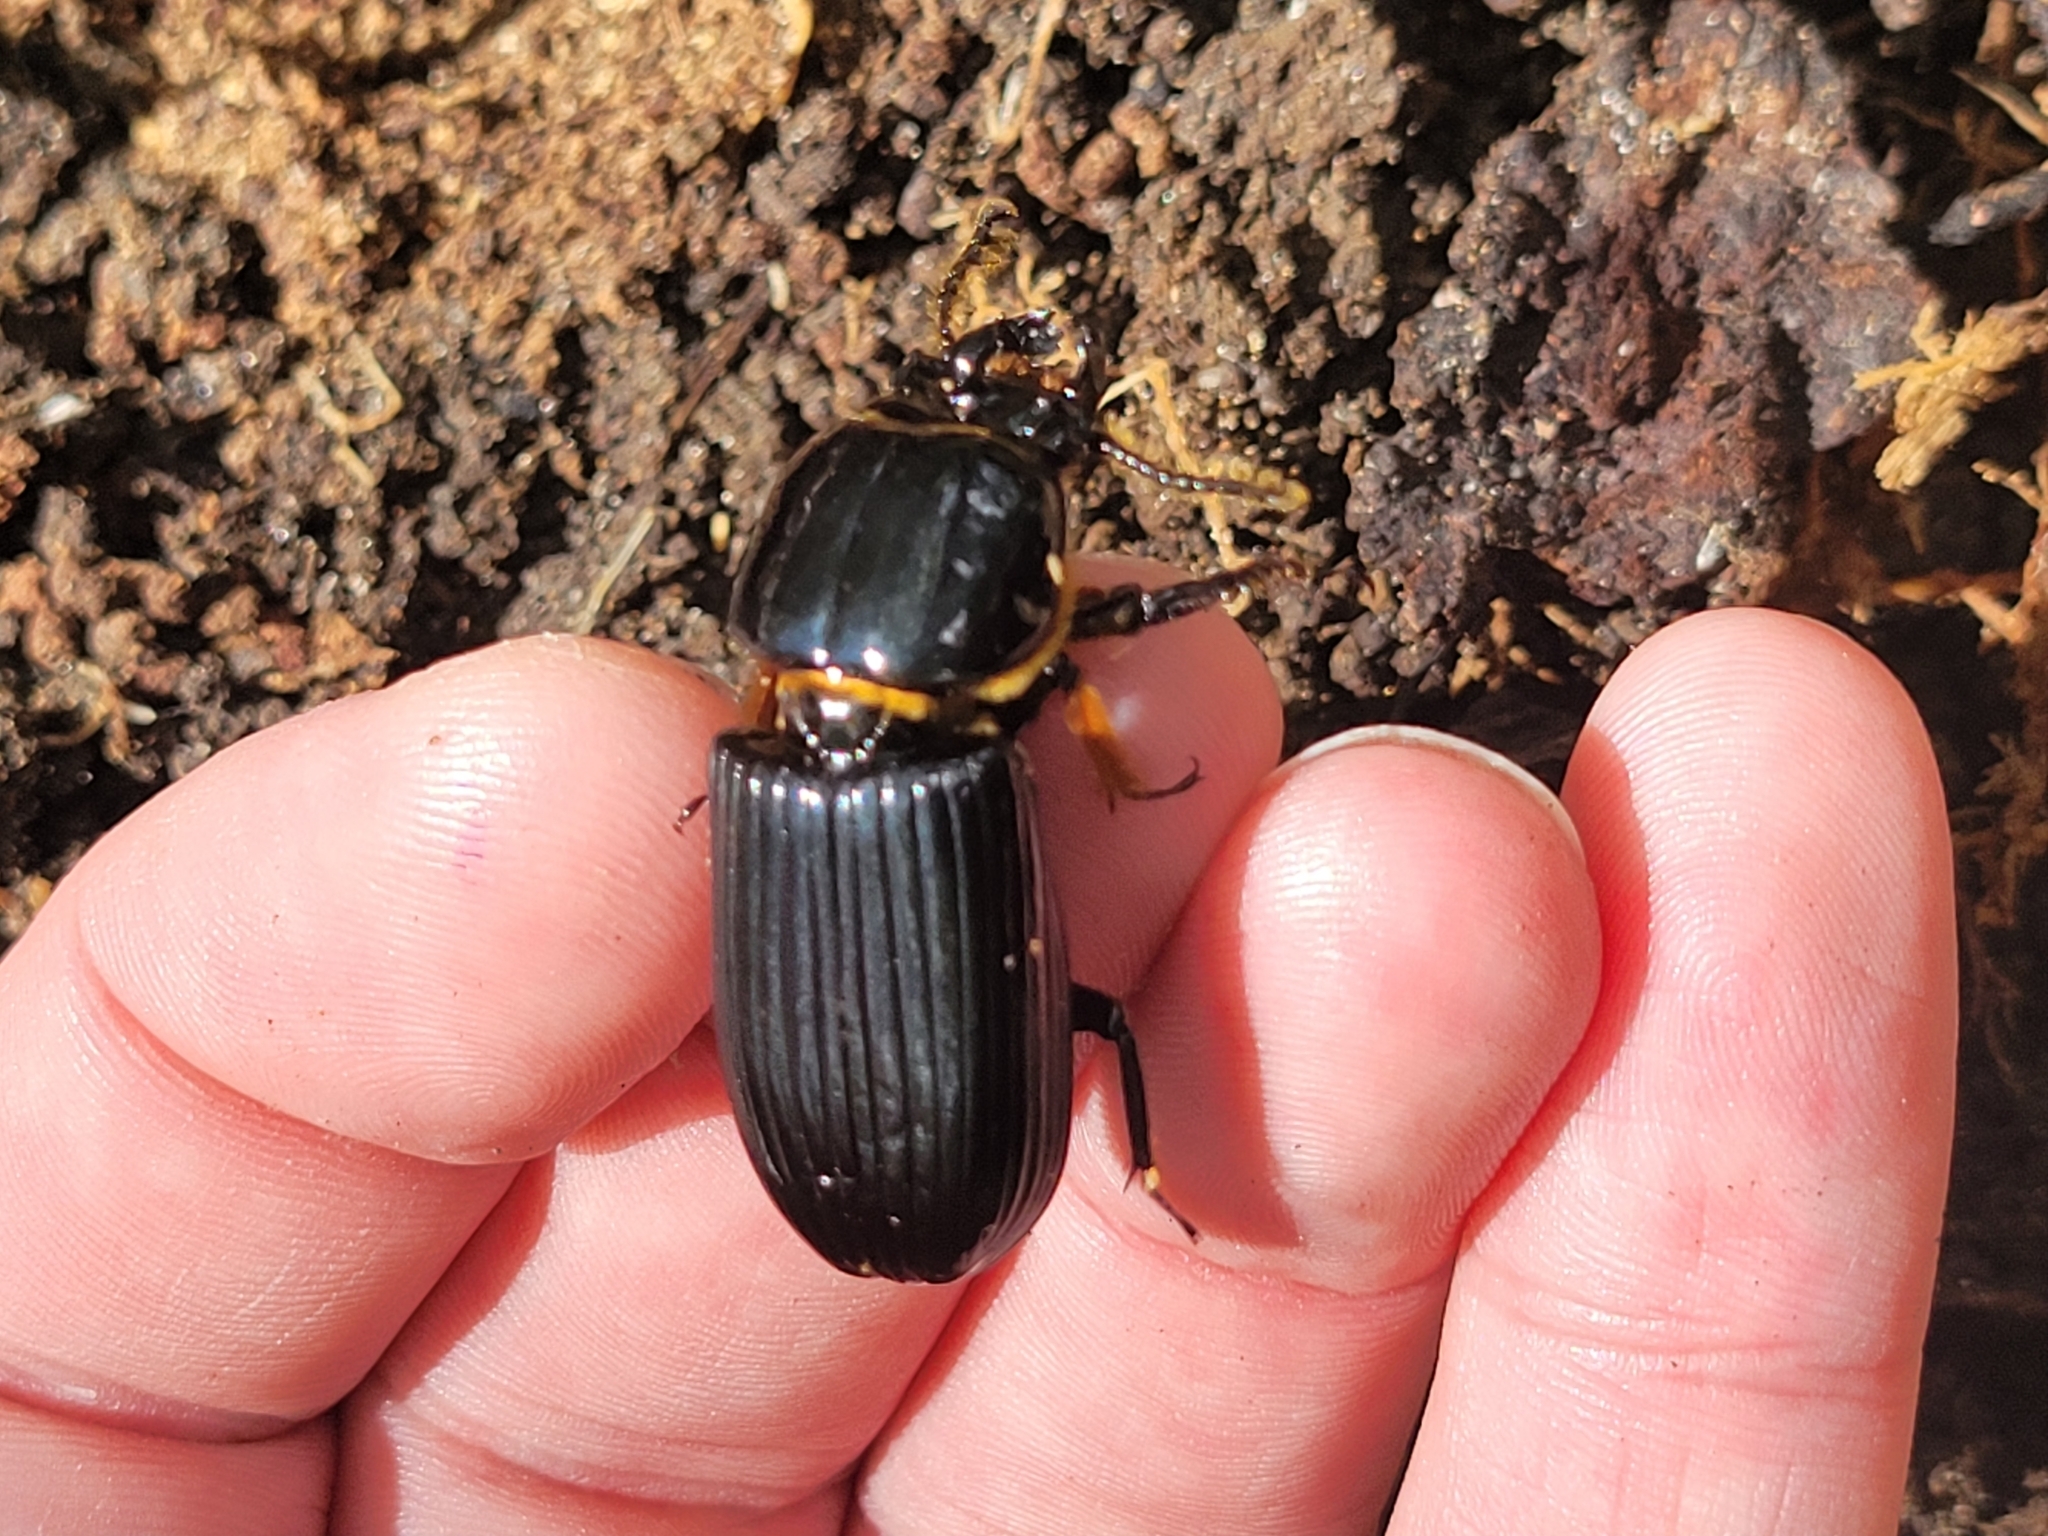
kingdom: Animalia
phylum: Arthropoda
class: Insecta
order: Coleoptera
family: Passalidae
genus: Odontotaenius
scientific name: Odontotaenius disjunctus
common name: Patent leather beetle
